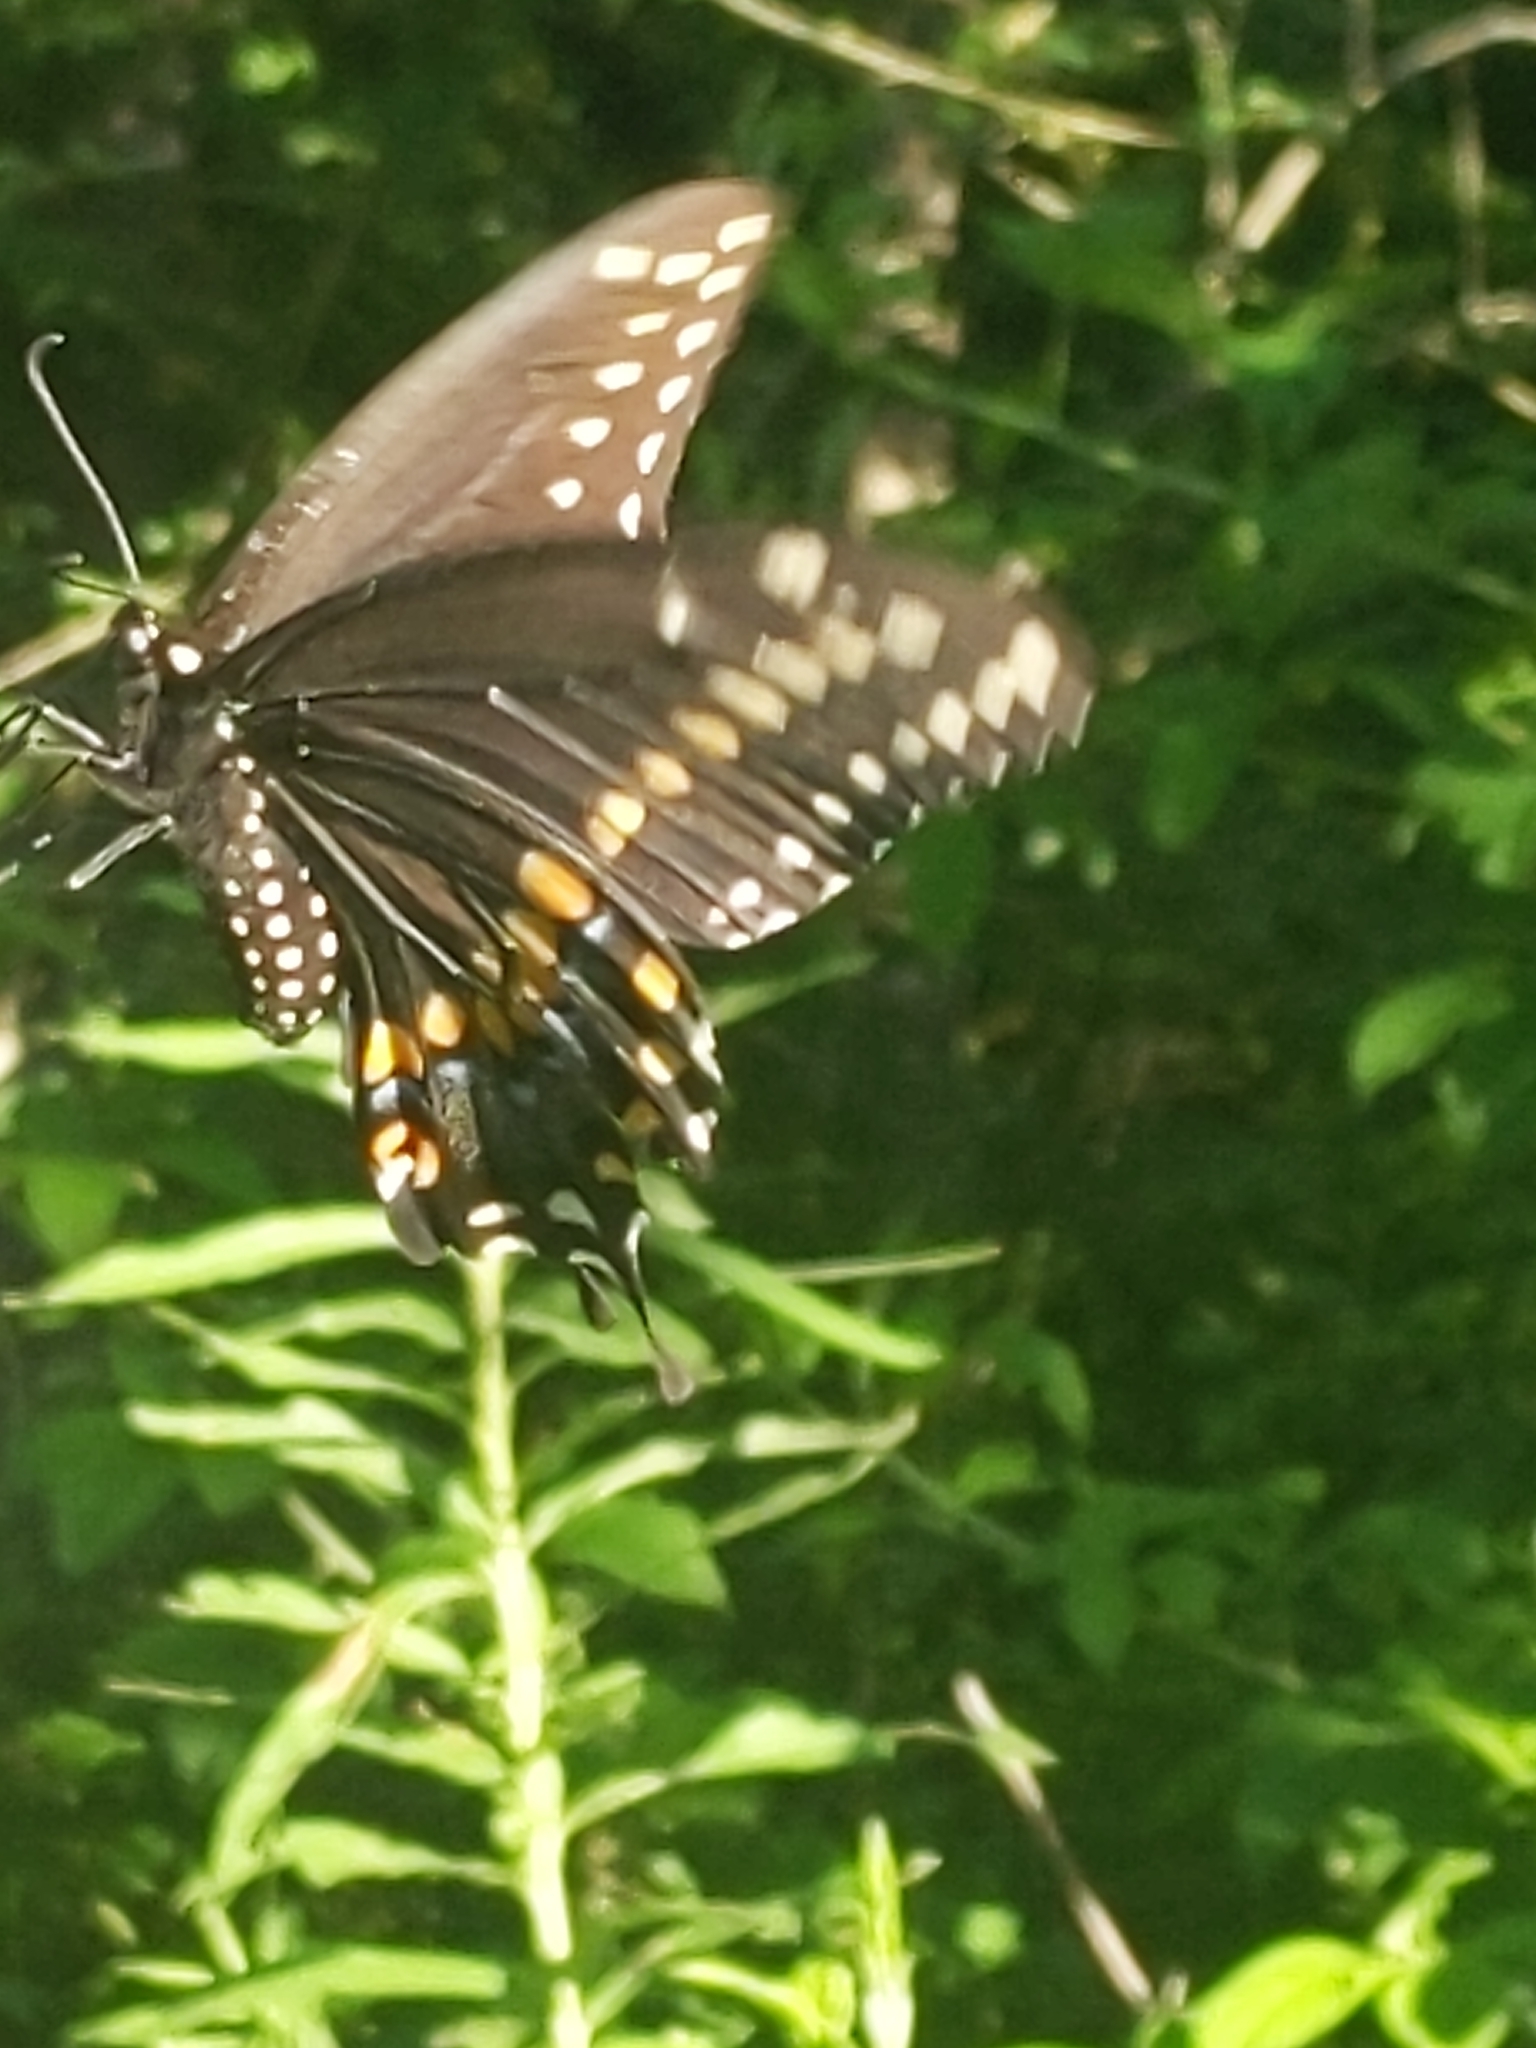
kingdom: Animalia
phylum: Arthropoda
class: Insecta
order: Lepidoptera
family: Papilionidae
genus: Papilio
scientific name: Papilio polyxenes
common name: Black swallowtail
